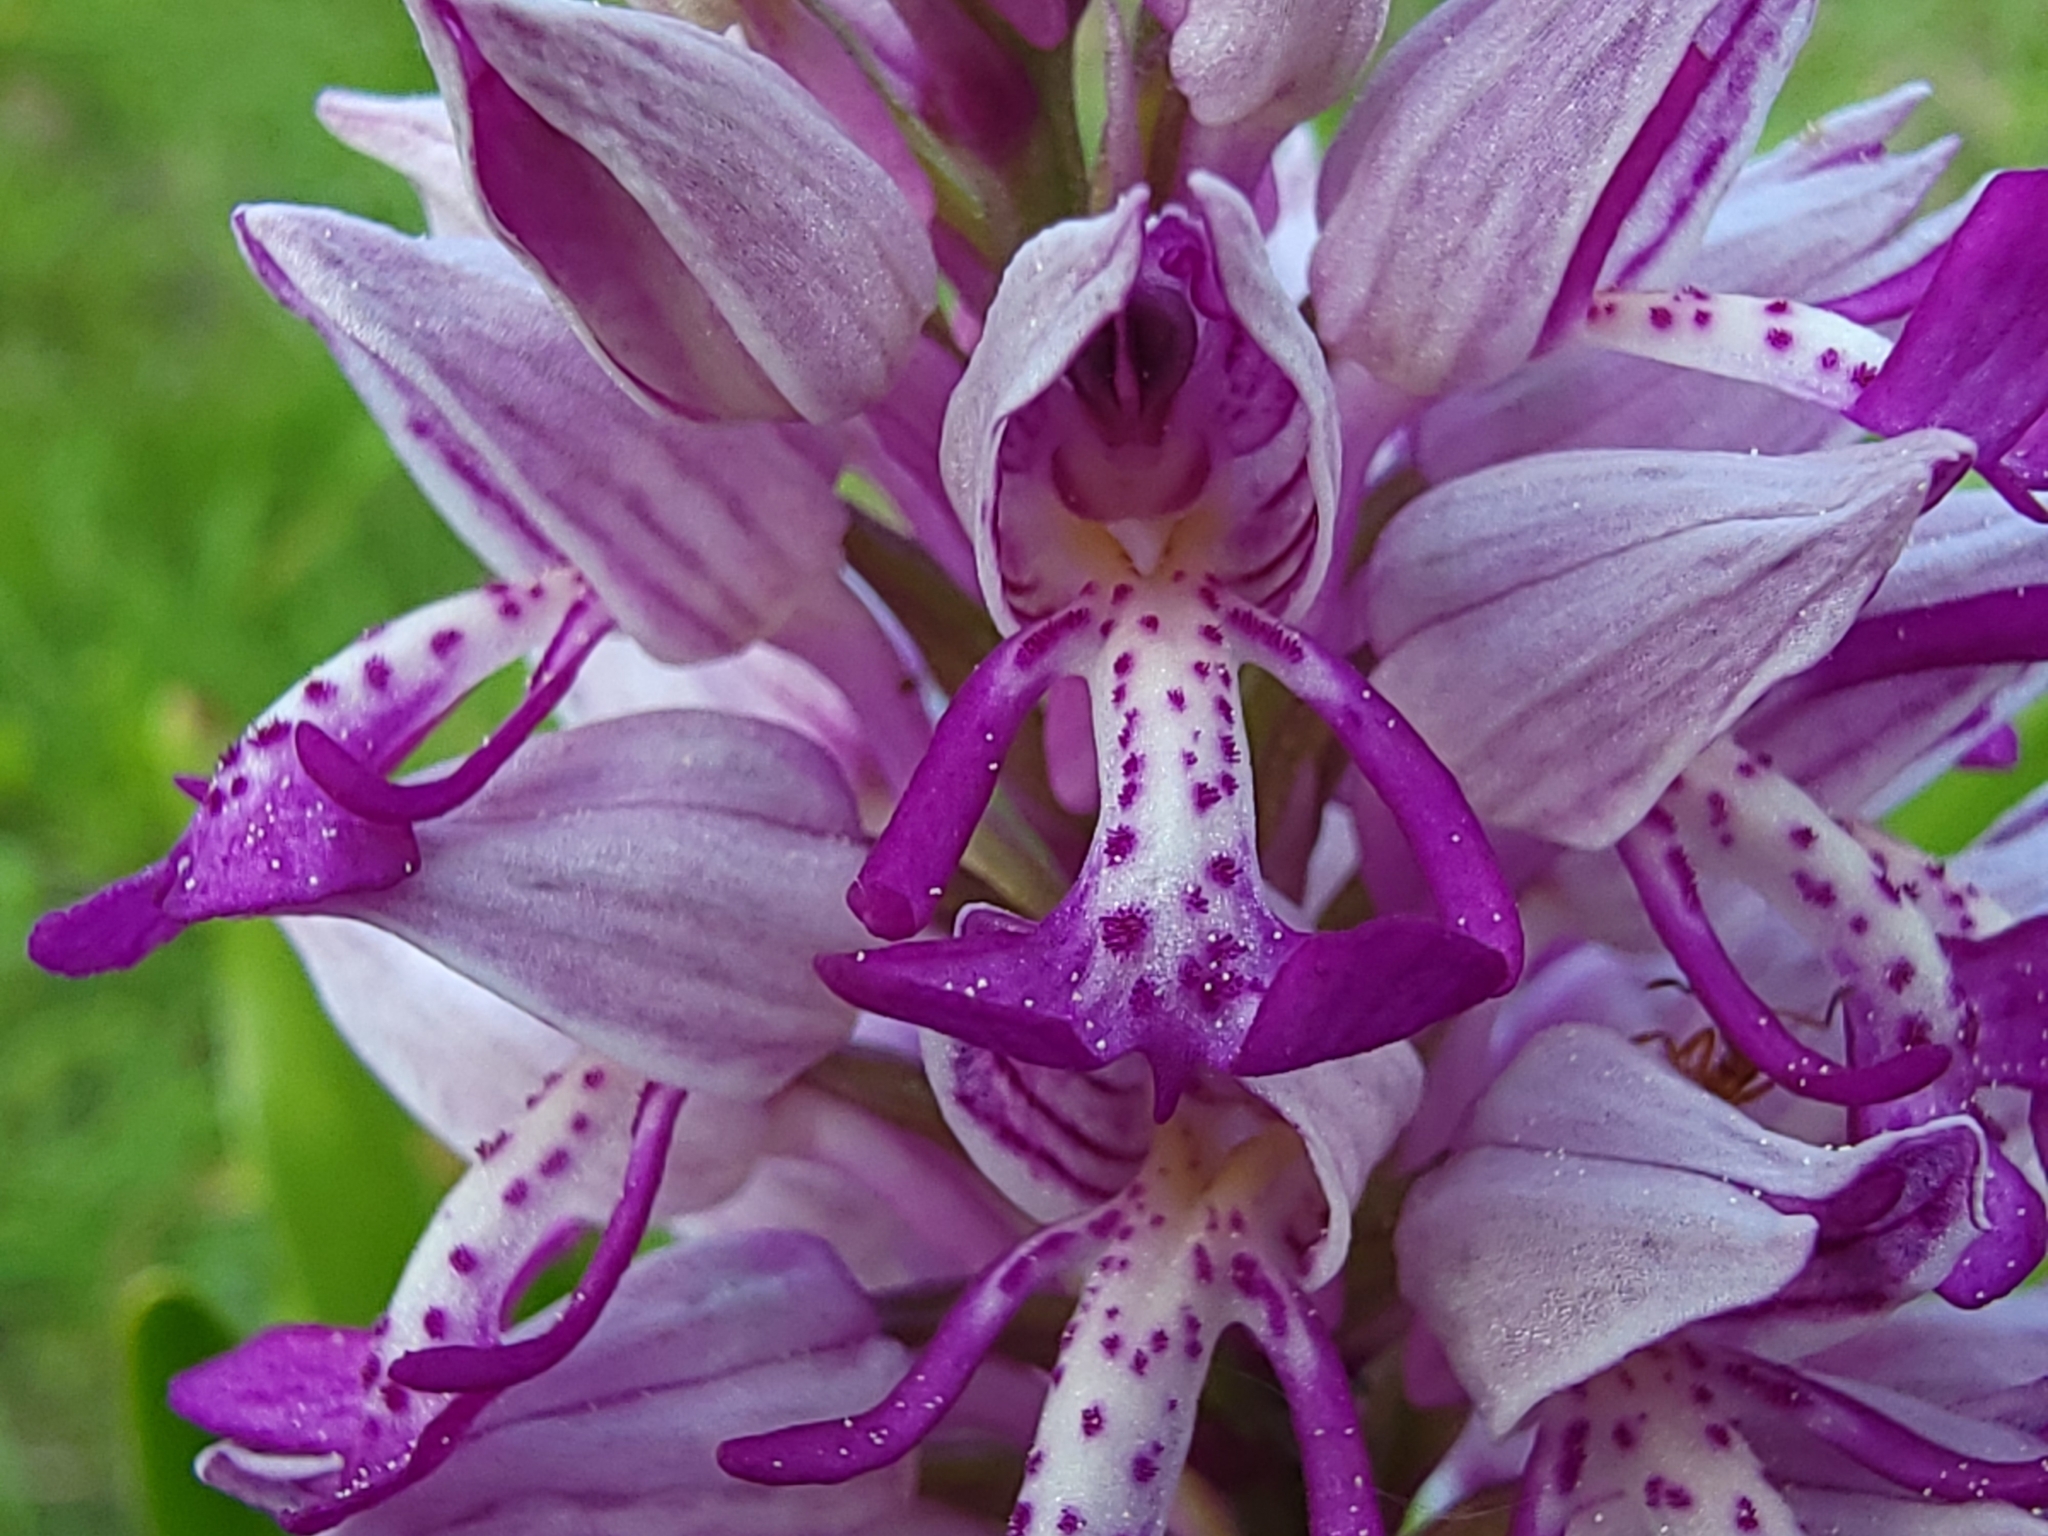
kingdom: Plantae
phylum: Tracheophyta
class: Liliopsida
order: Asparagales
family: Orchidaceae
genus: Orchis
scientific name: Orchis militaris
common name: Military orchid
